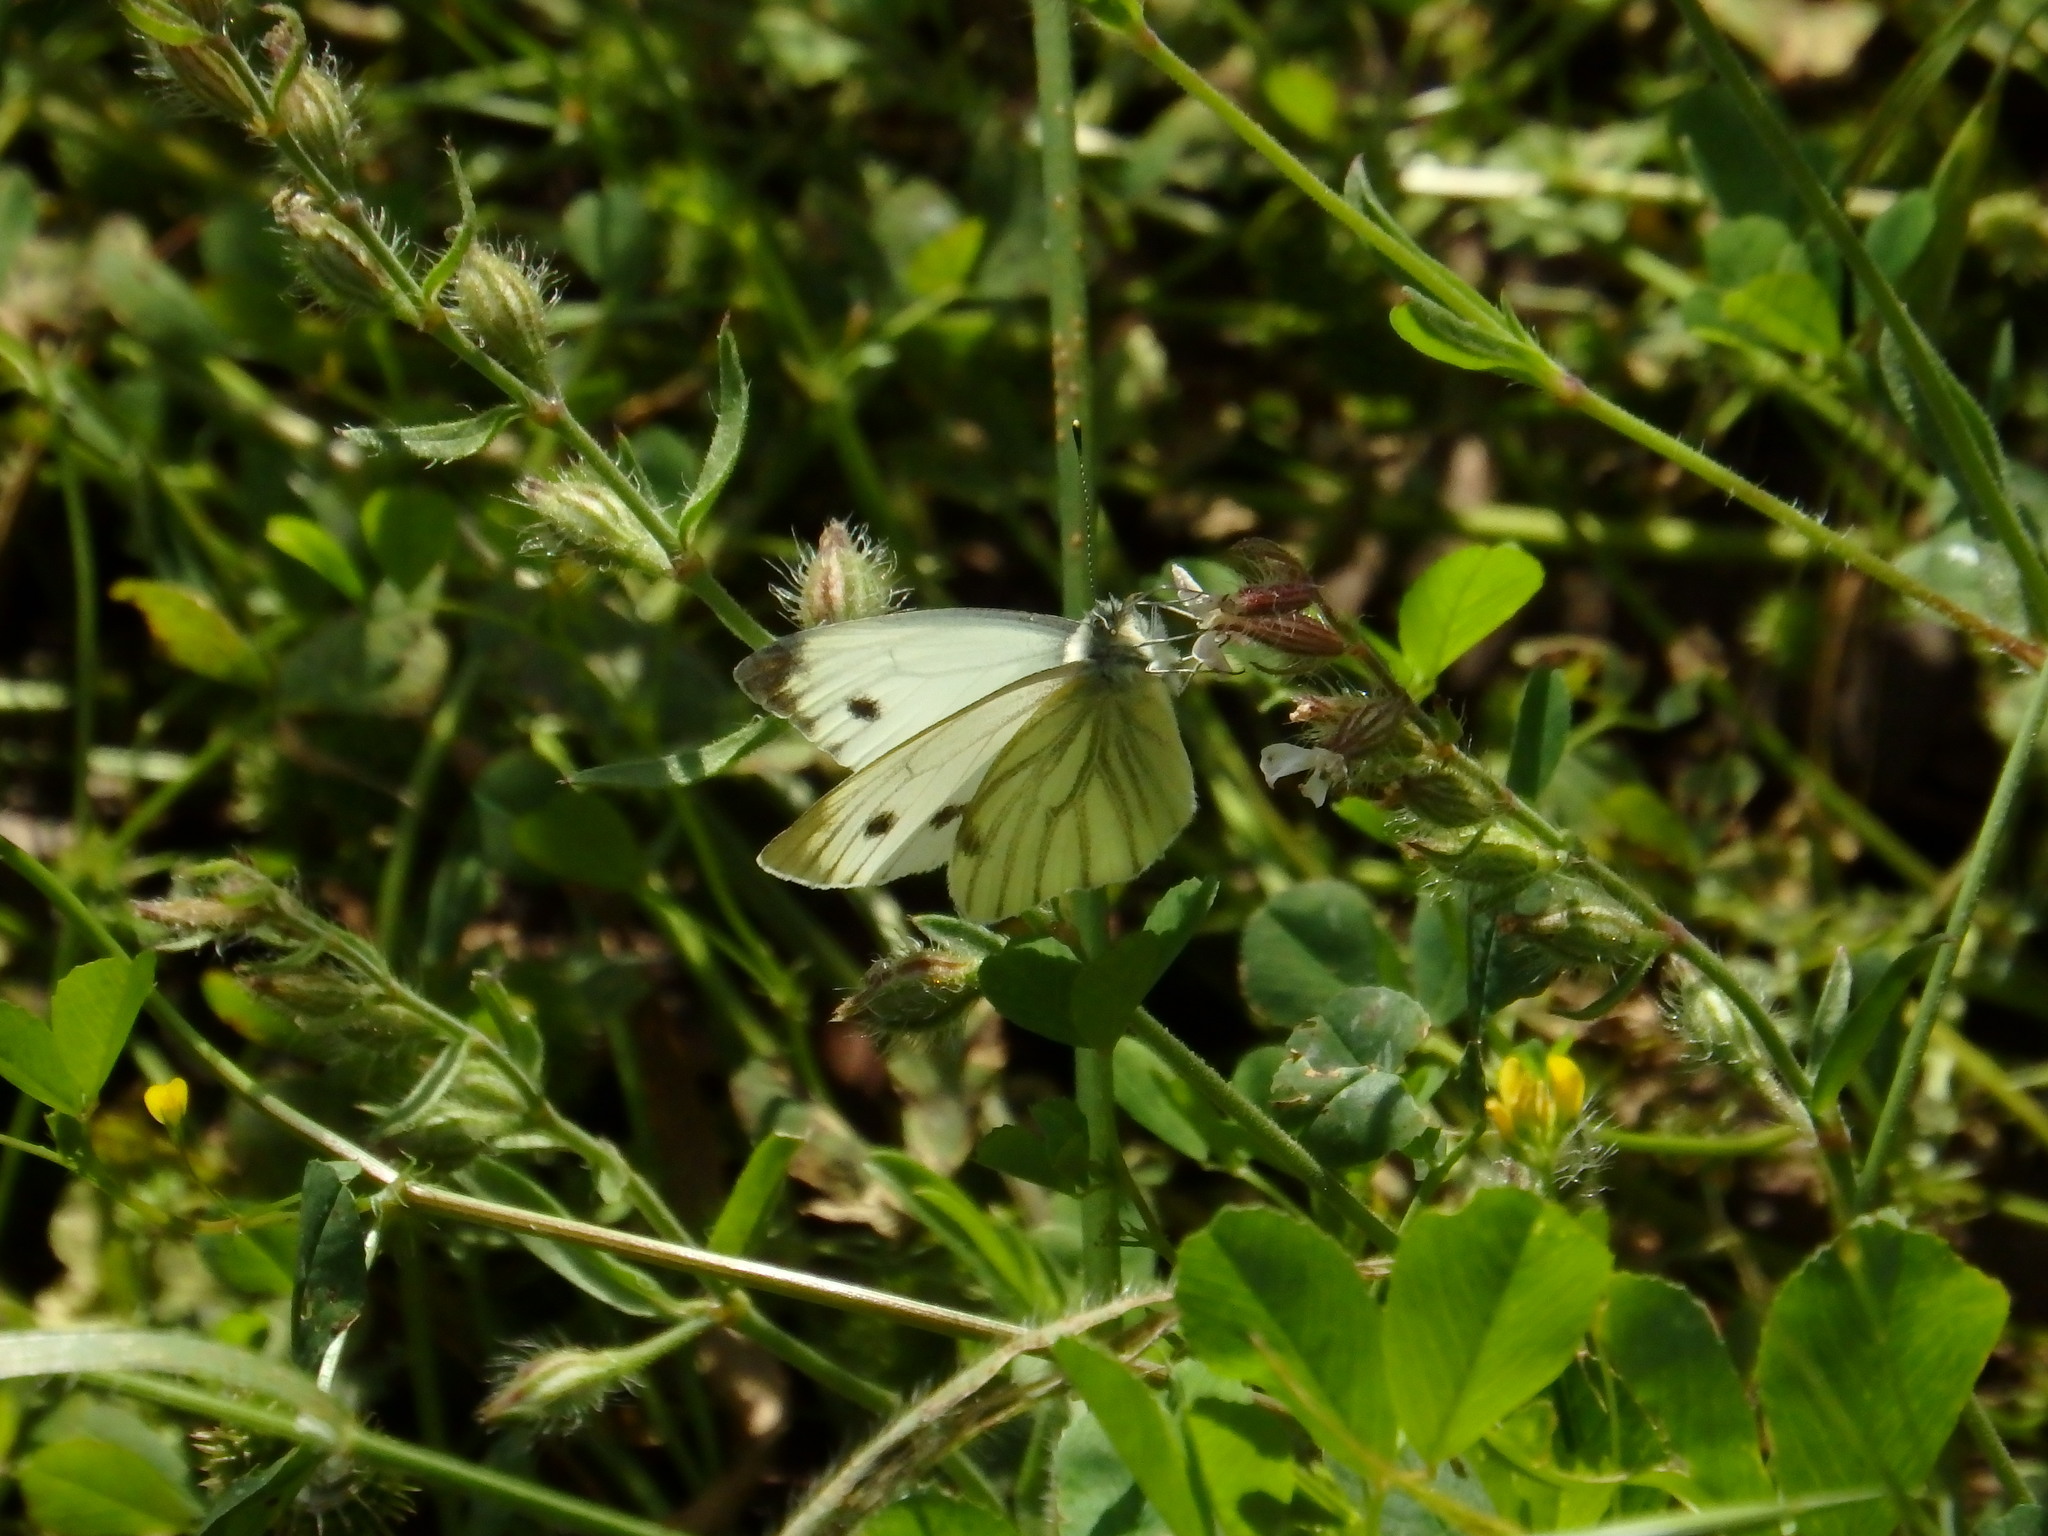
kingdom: Animalia
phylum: Arthropoda
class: Insecta
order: Lepidoptera
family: Pieridae
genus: Pieris
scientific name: Pieris napi
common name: Green-veined white
